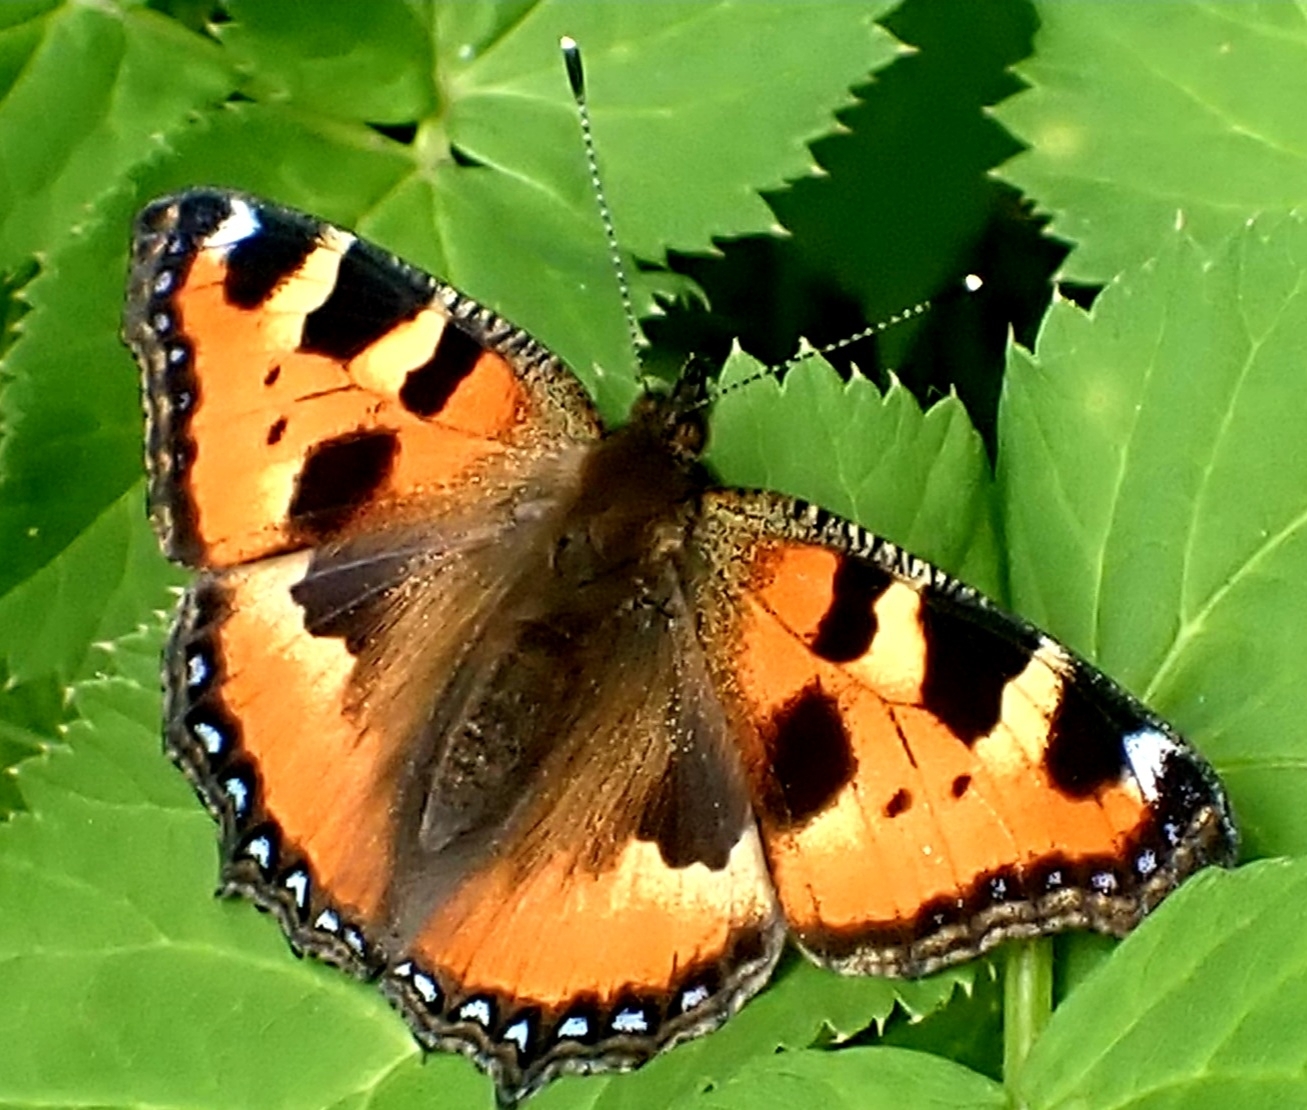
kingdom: Animalia
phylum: Arthropoda
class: Insecta
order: Lepidoptera
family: Nymphalidae
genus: Aglais
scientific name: Aglais urticae
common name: Small tortoiseshell
